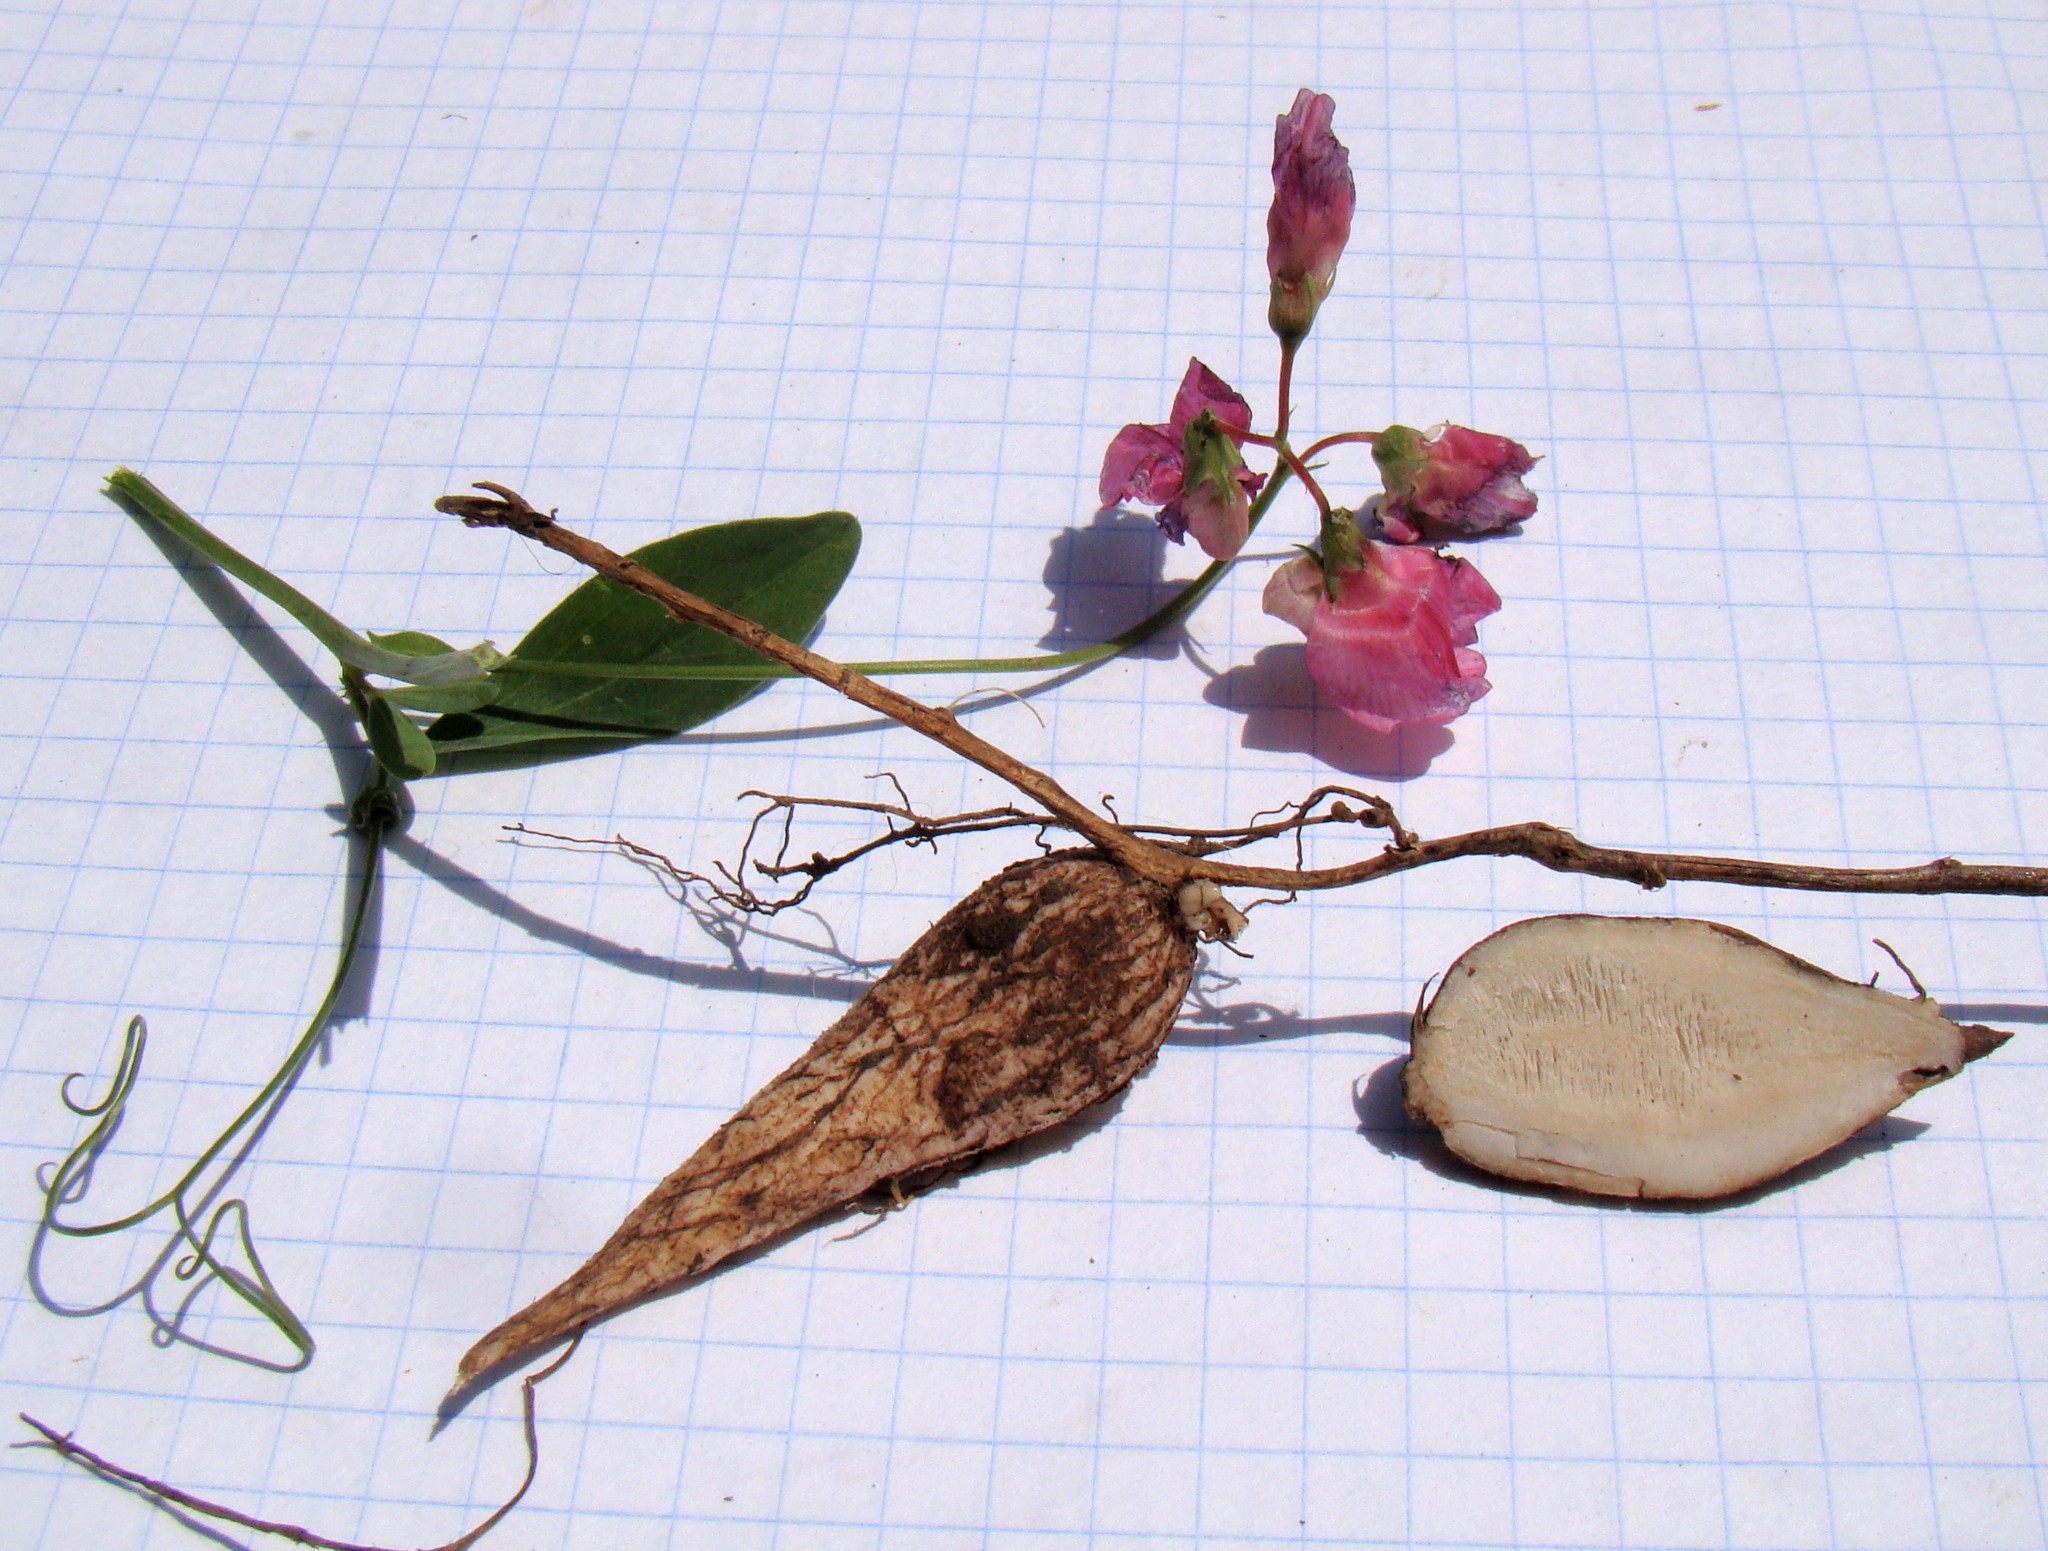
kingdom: Plantae
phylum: Tracheophyta
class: Magnoliopsida
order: Fabales
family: Fabaceae
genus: Lathyrus
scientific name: Lathyrus tuberosus
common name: Tuberous pea
